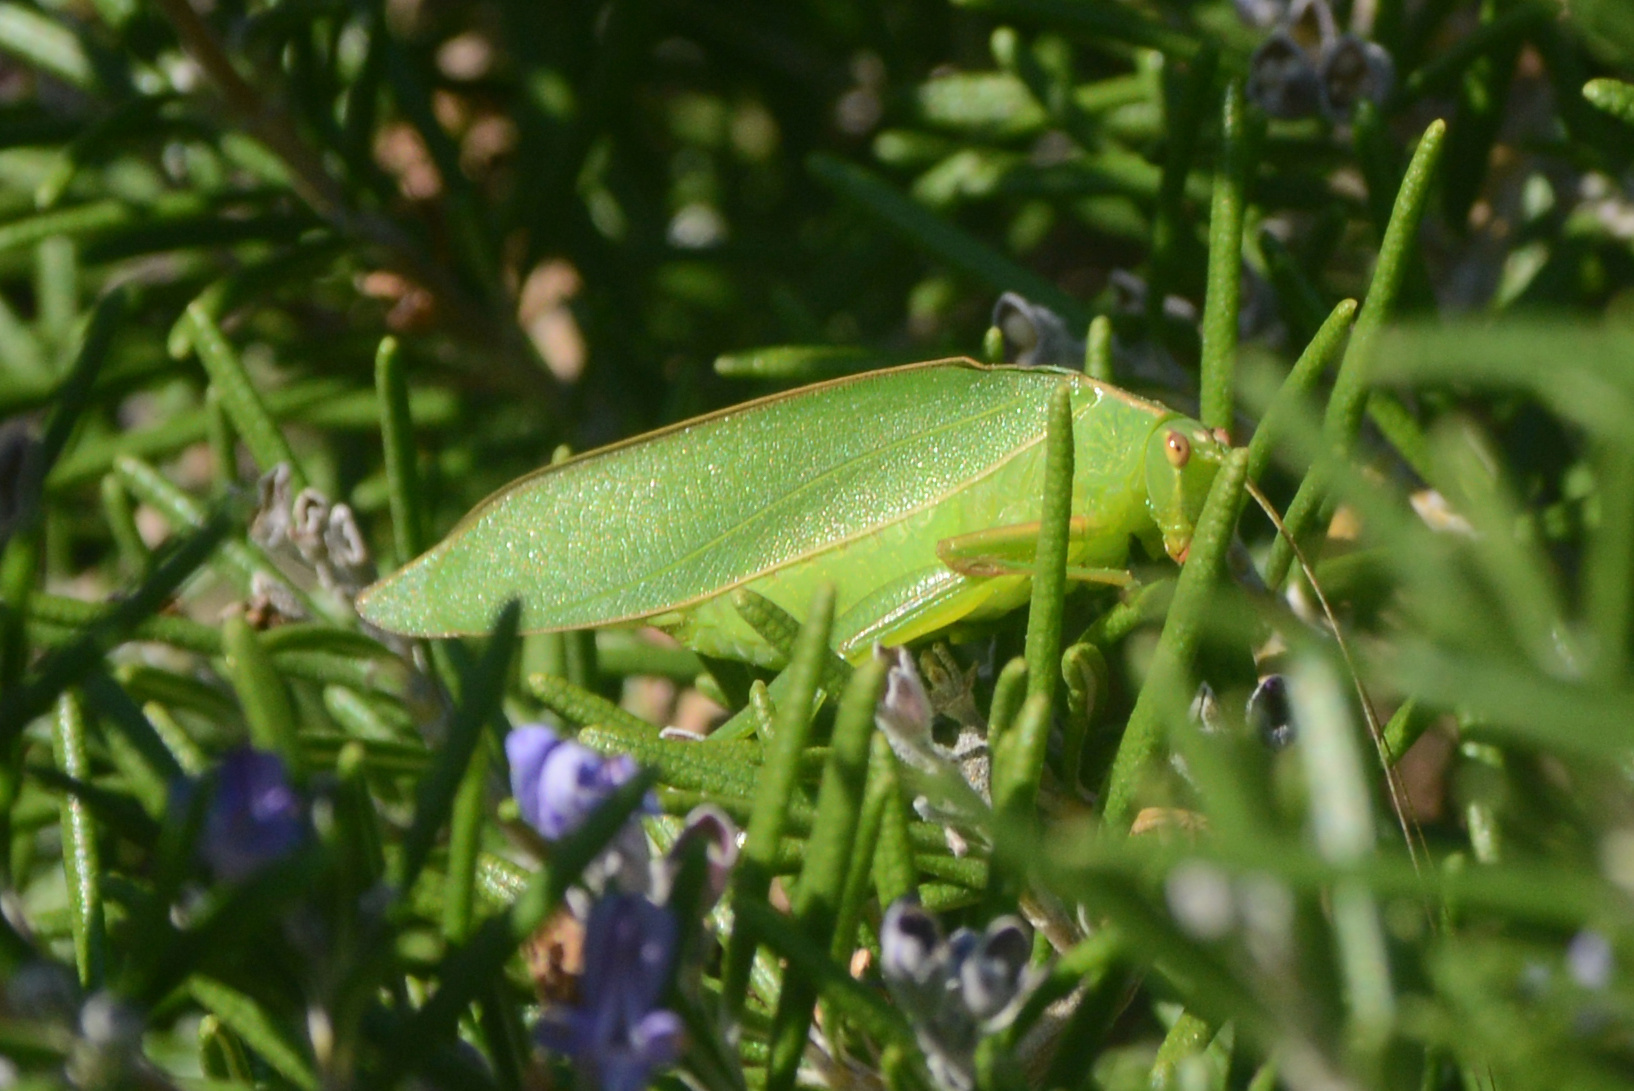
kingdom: Animalia
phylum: Arthropoda
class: Insecta
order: Orthoptera
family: Tettigoniidae
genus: Caedicia
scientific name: Caedicia simplex
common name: Common garden katydid
